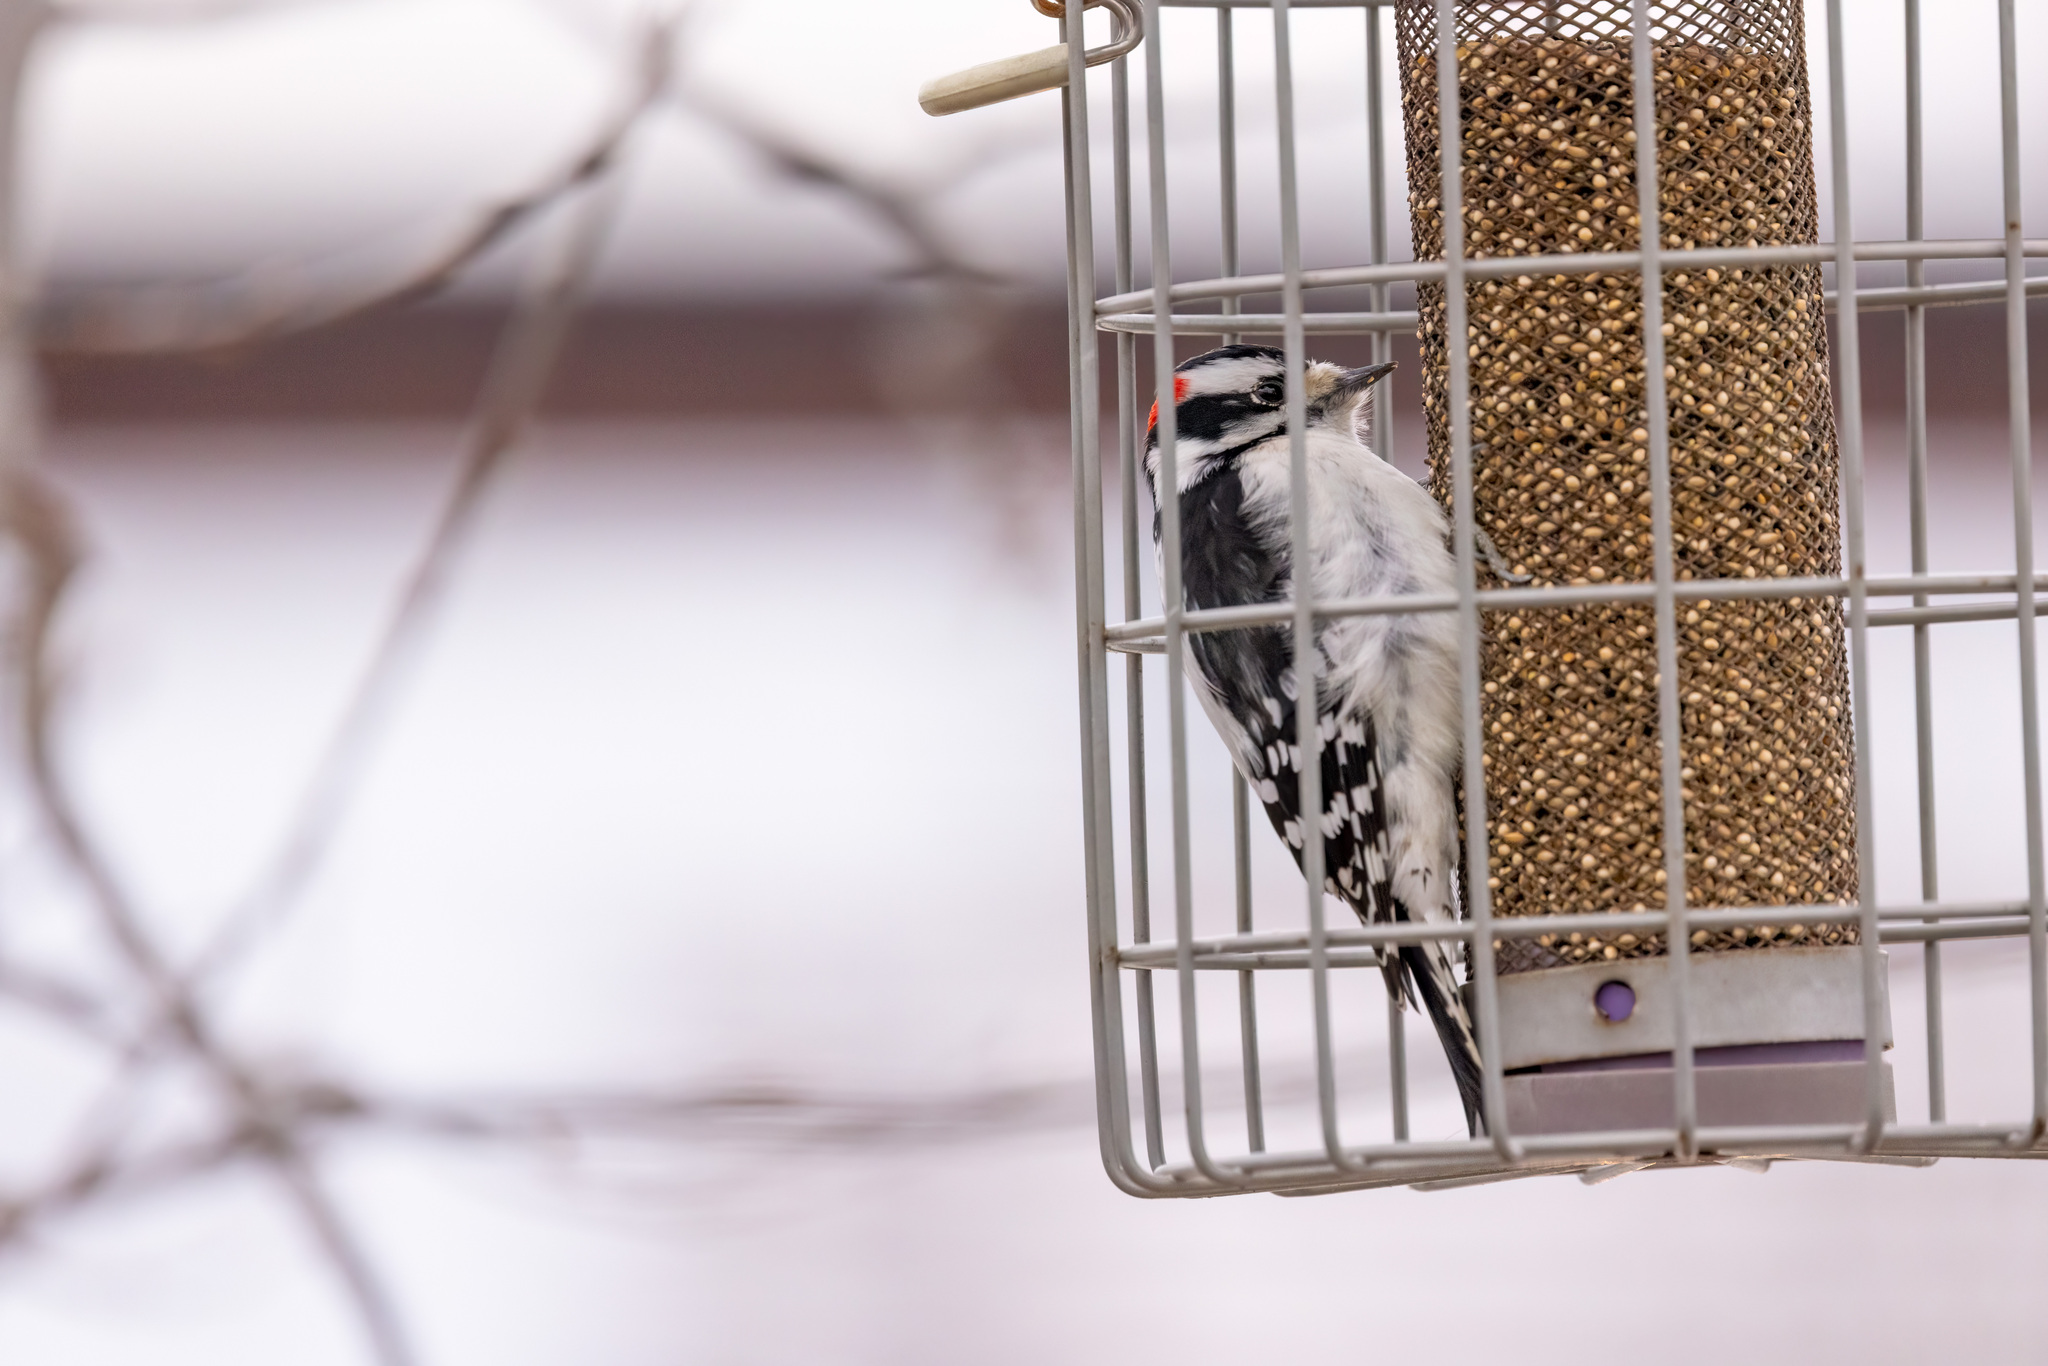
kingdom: Animalia
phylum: Chordata
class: Aves
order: Piciformes
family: Picidae
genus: Dryobates
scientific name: Dryobates pubescens
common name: Downy woodpecker
